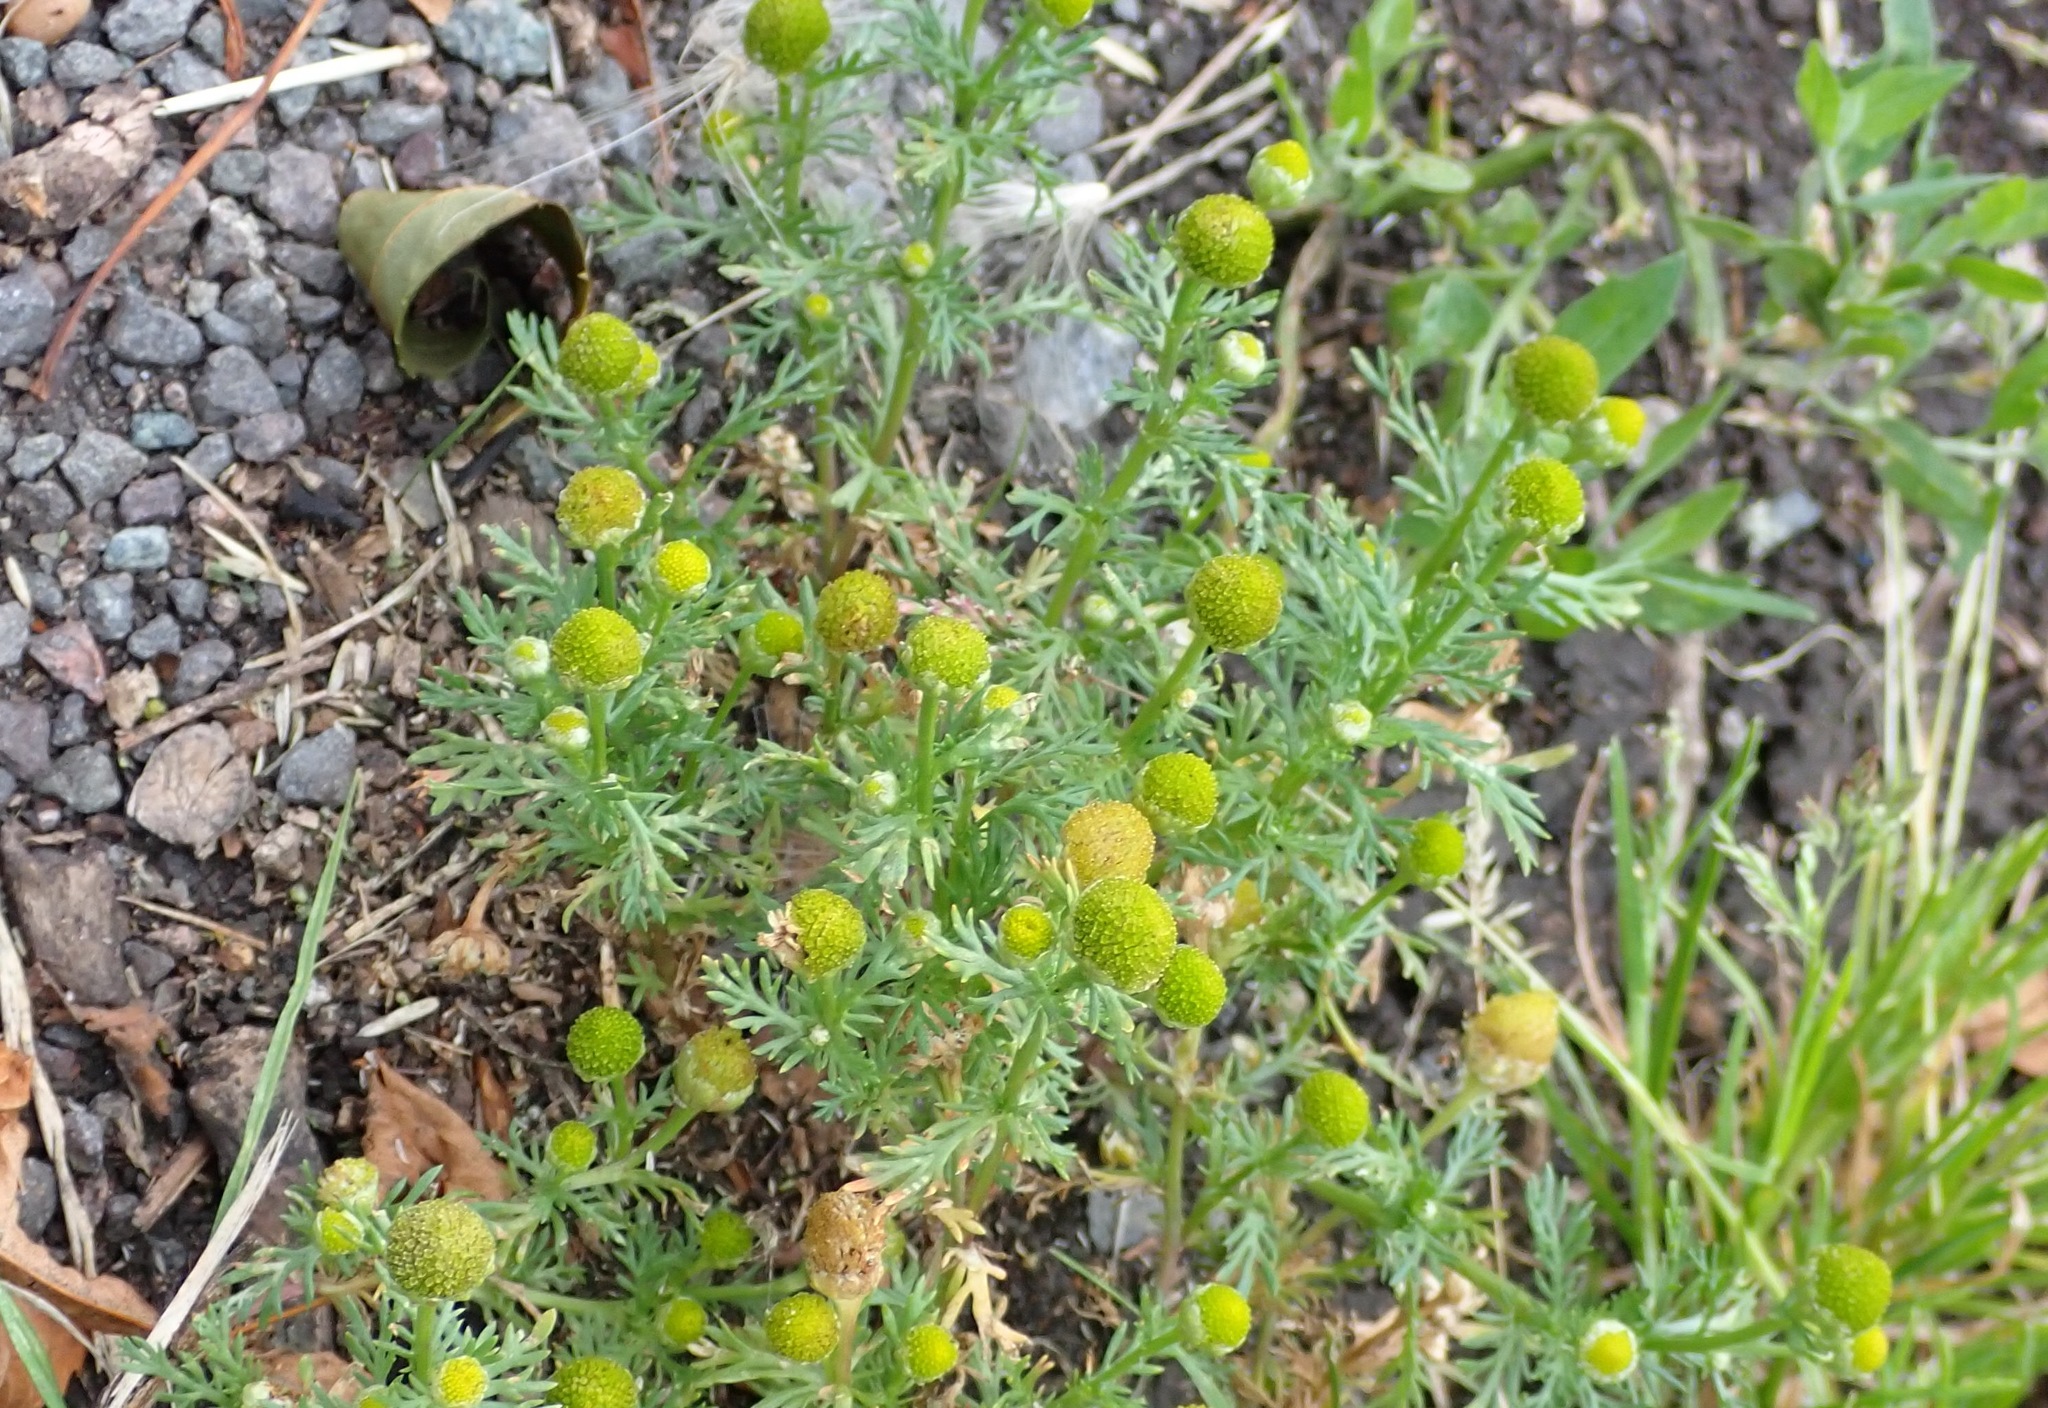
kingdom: Plantae
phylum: Tracheophyta
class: Magnoliopsida
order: Asterales
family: Asteraceae
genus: Matricaria
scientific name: Matricaria discoidea
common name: Disc mayweed
